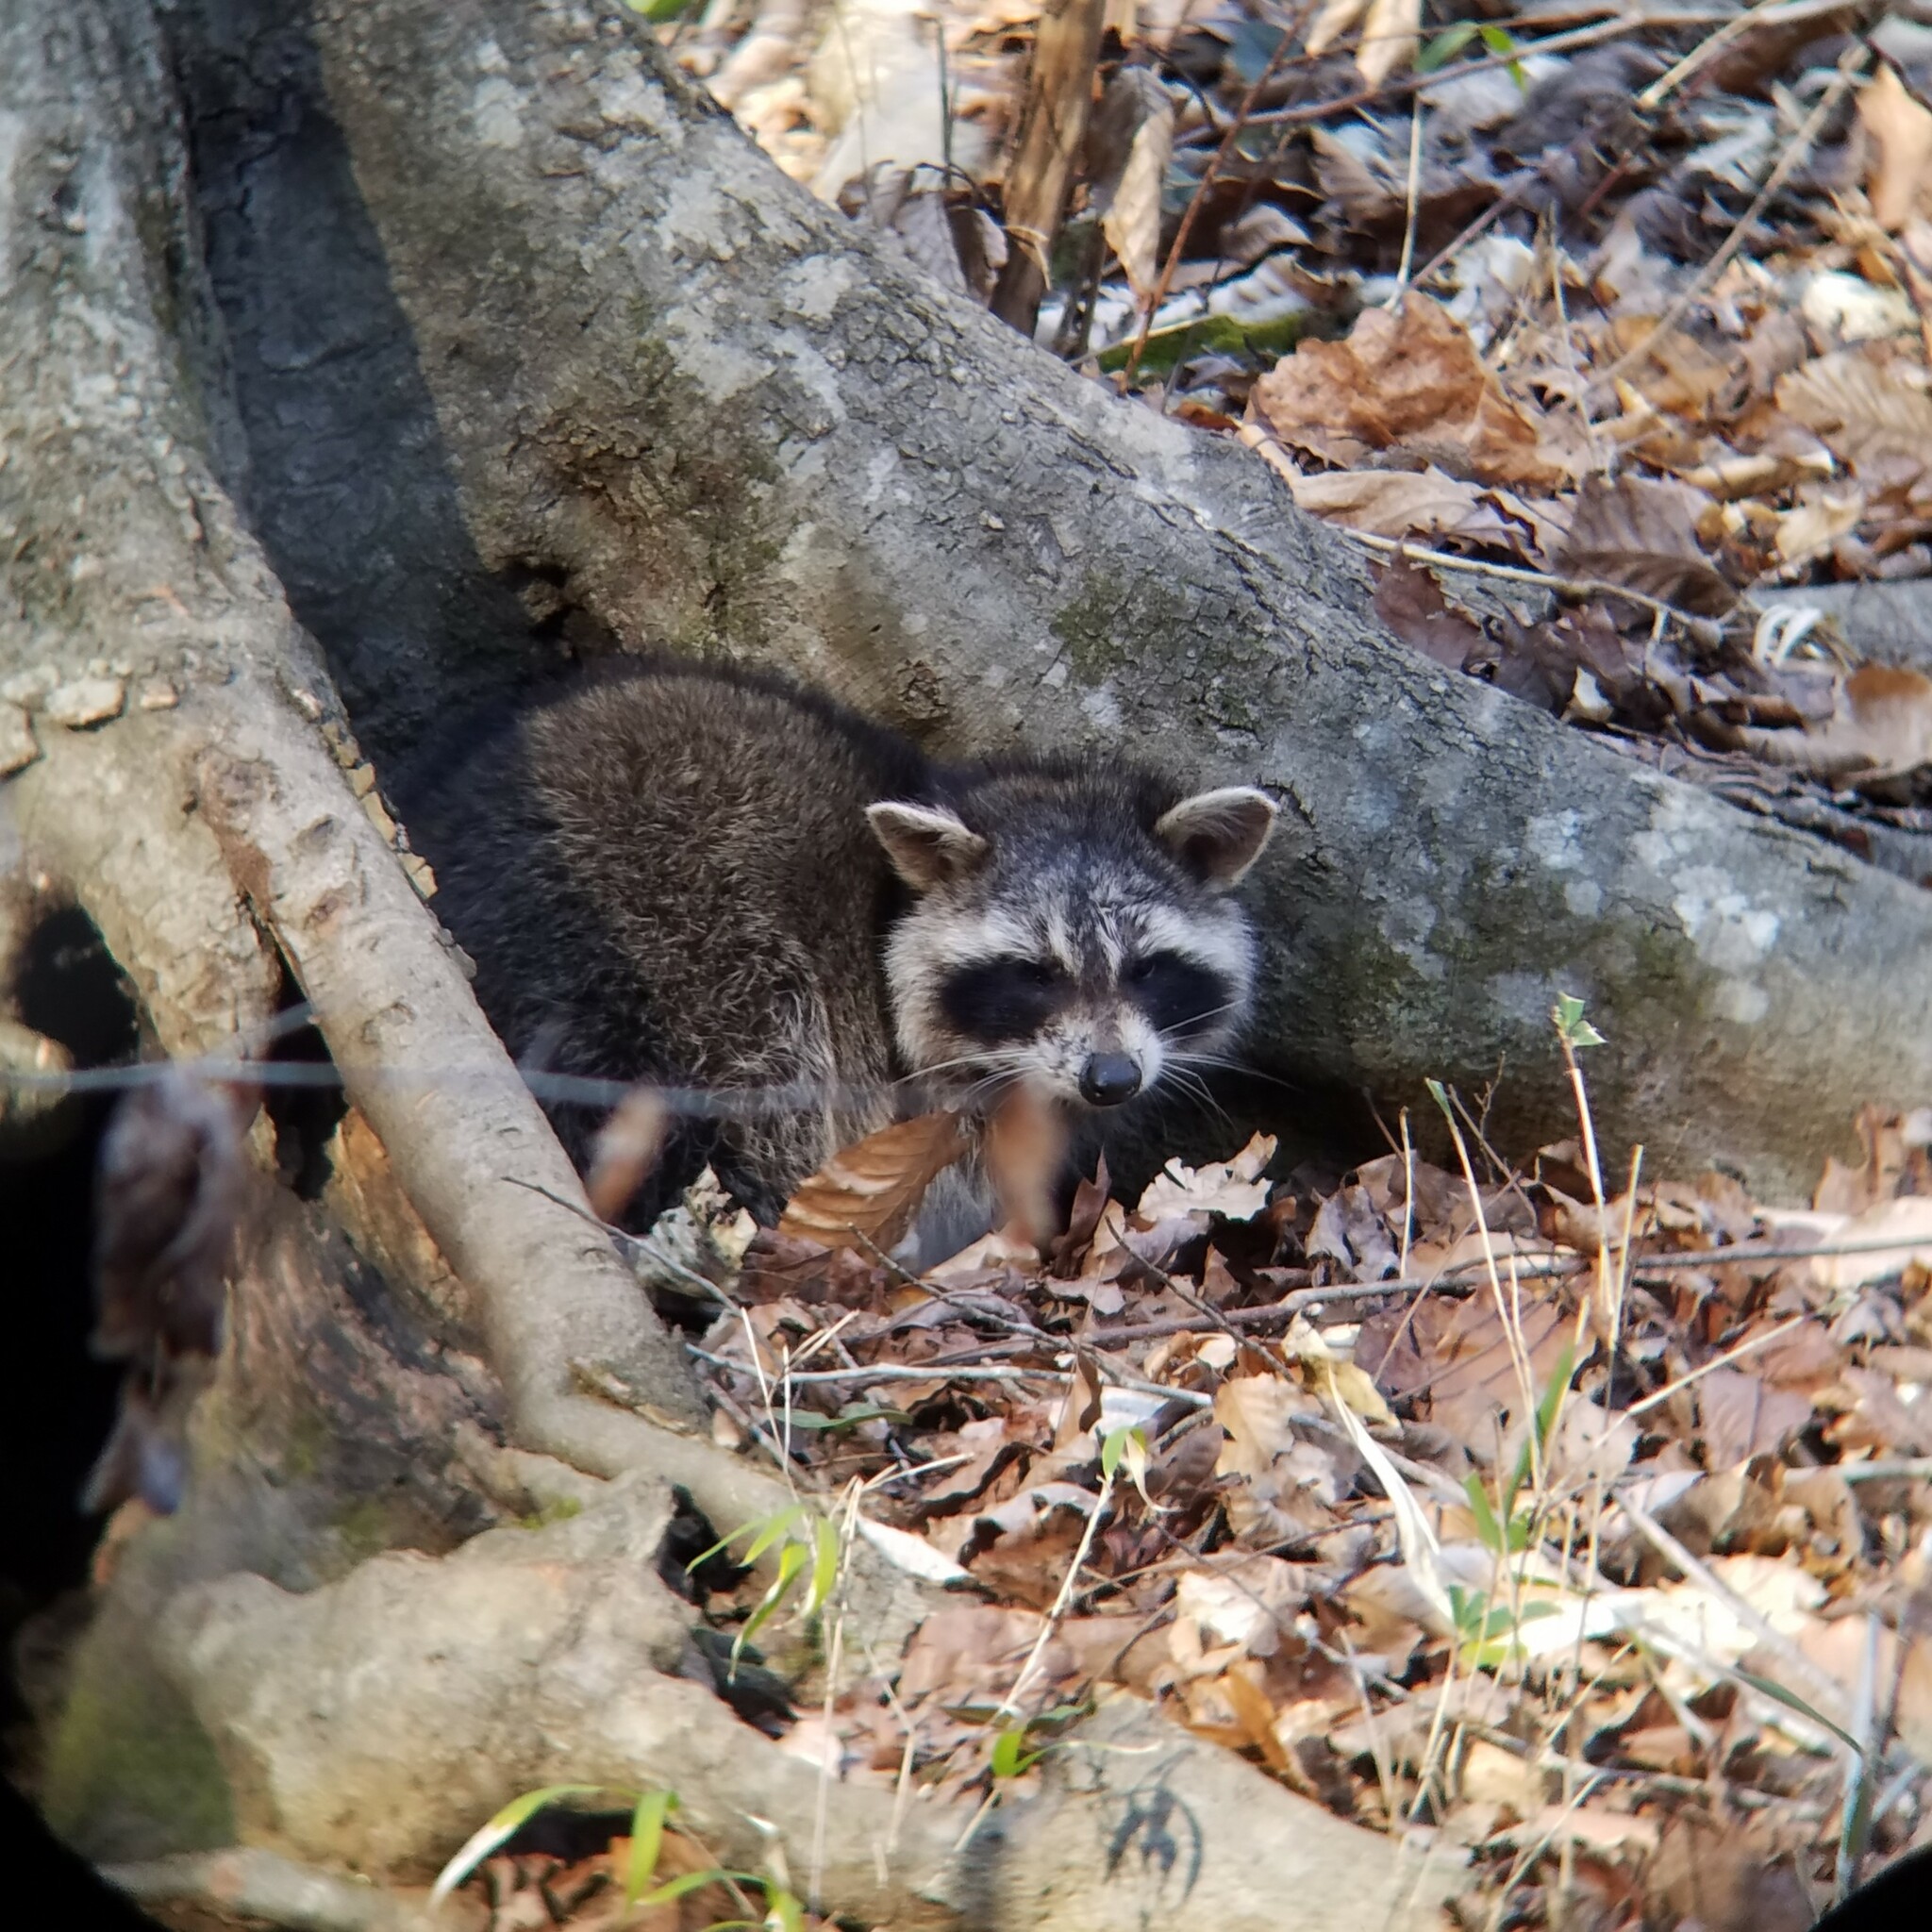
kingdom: Animalia
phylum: Chordata
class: Mammalia
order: Carnivora
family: Procyonidae
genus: Procyon
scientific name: Procyon lotor
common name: Raccoon
